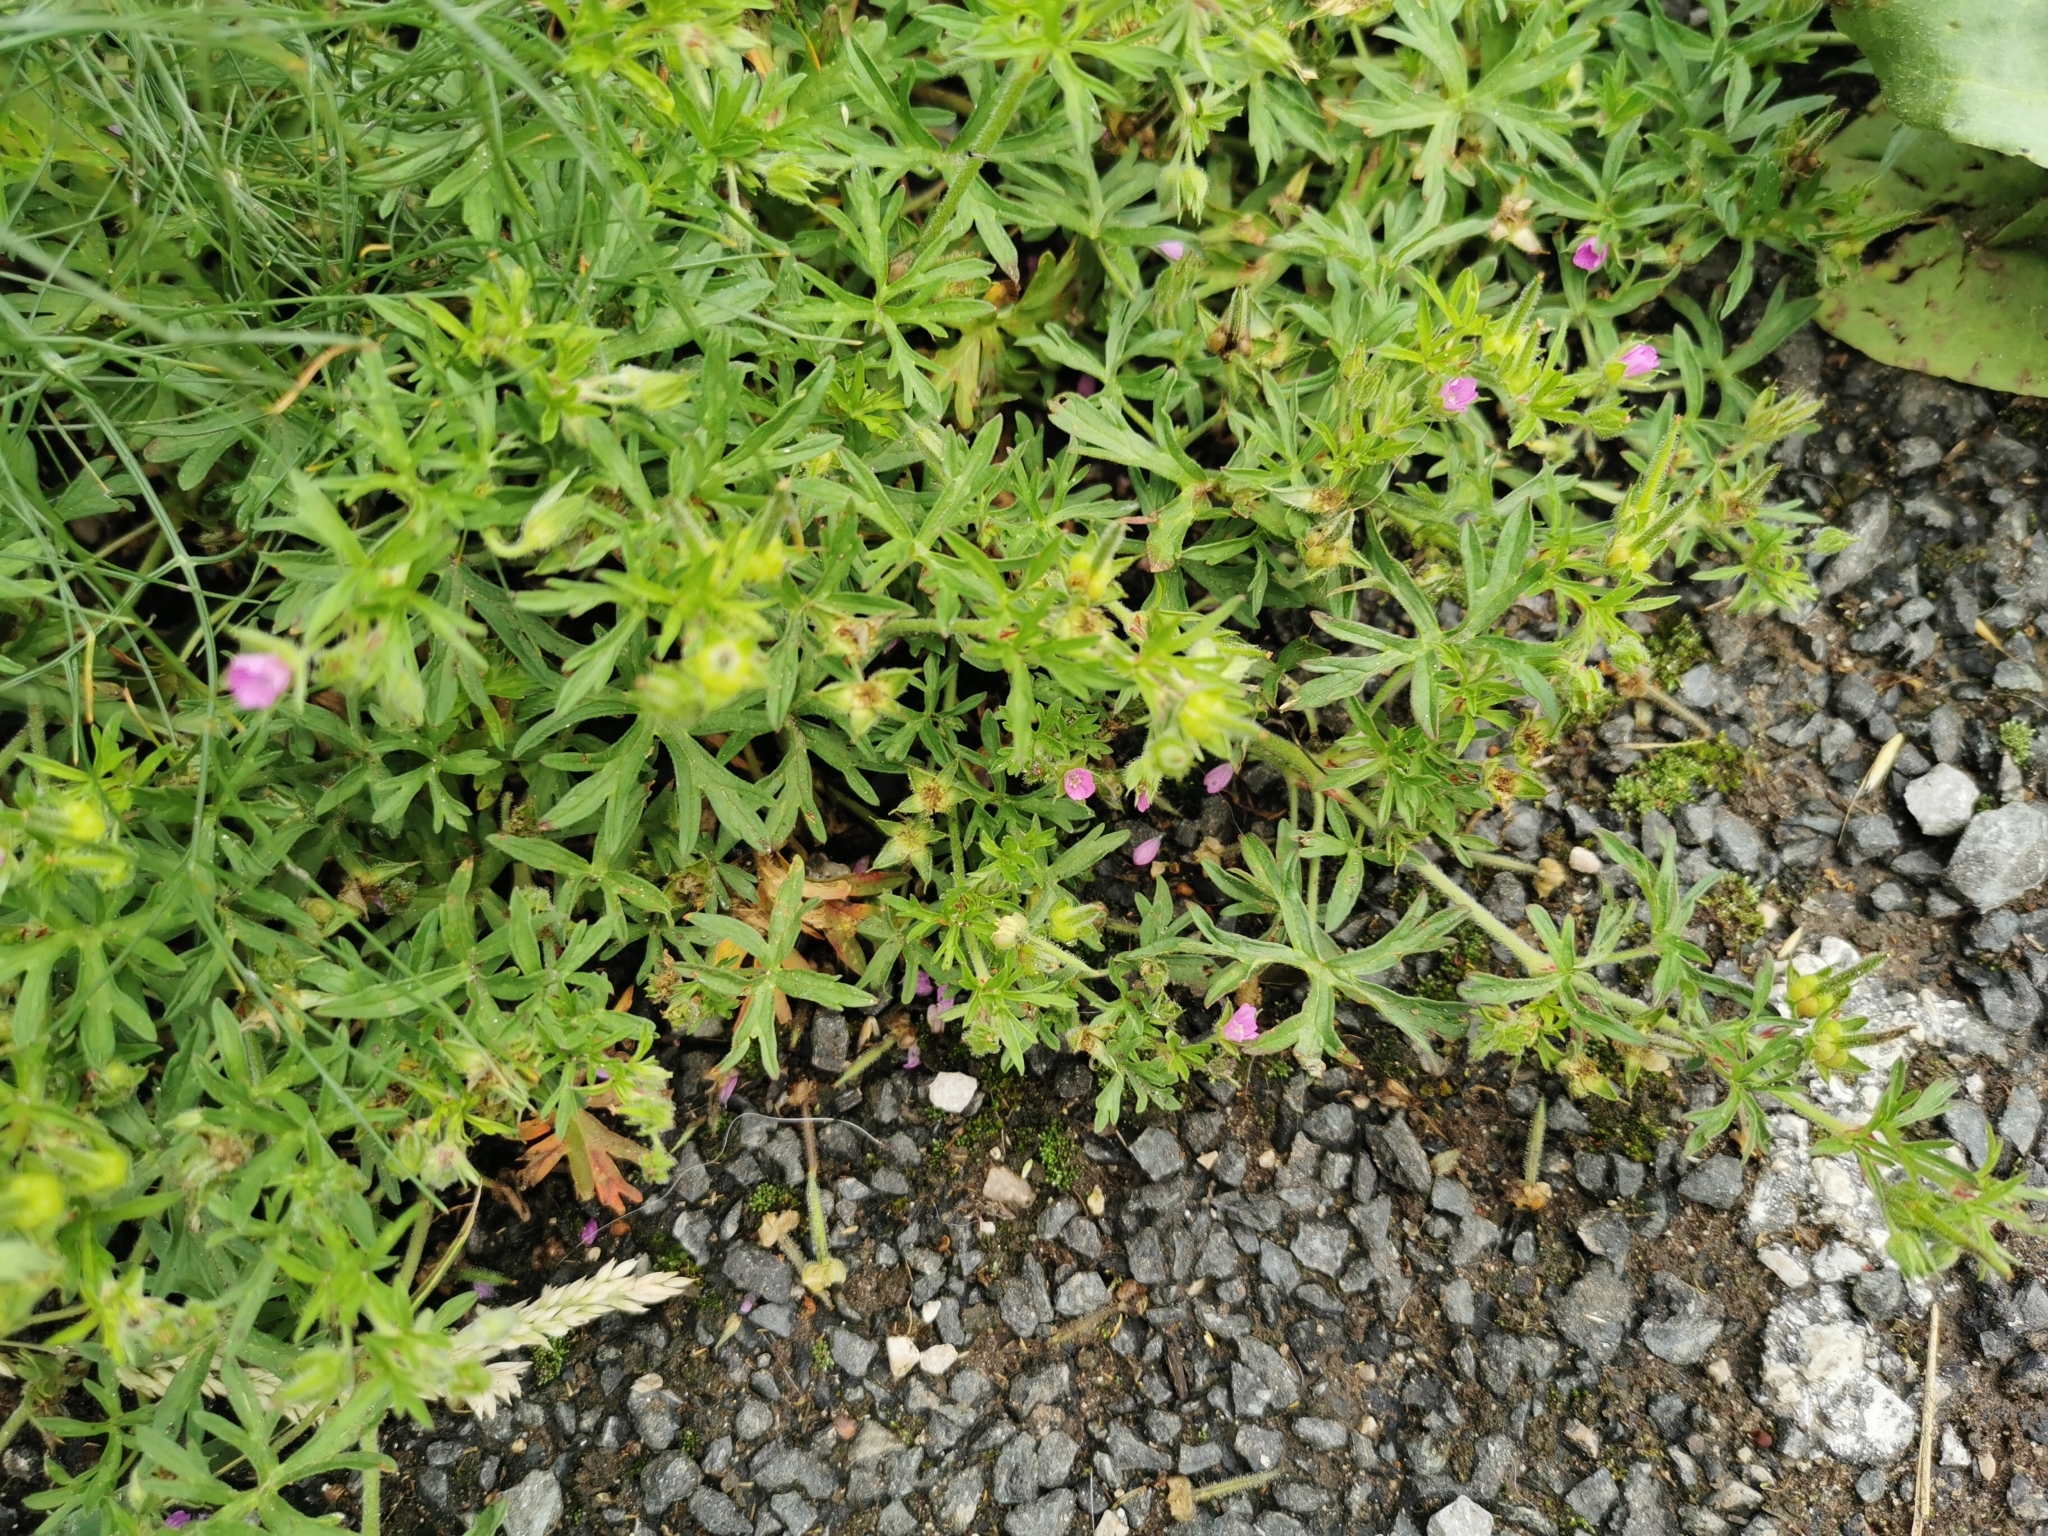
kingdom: Plantae
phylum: Tracheophyta
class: Magnoliopsida
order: Geraniales
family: Geraniaceae
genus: Geranium
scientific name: Geranium dissectum
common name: Cut-leaved crane's-bill
